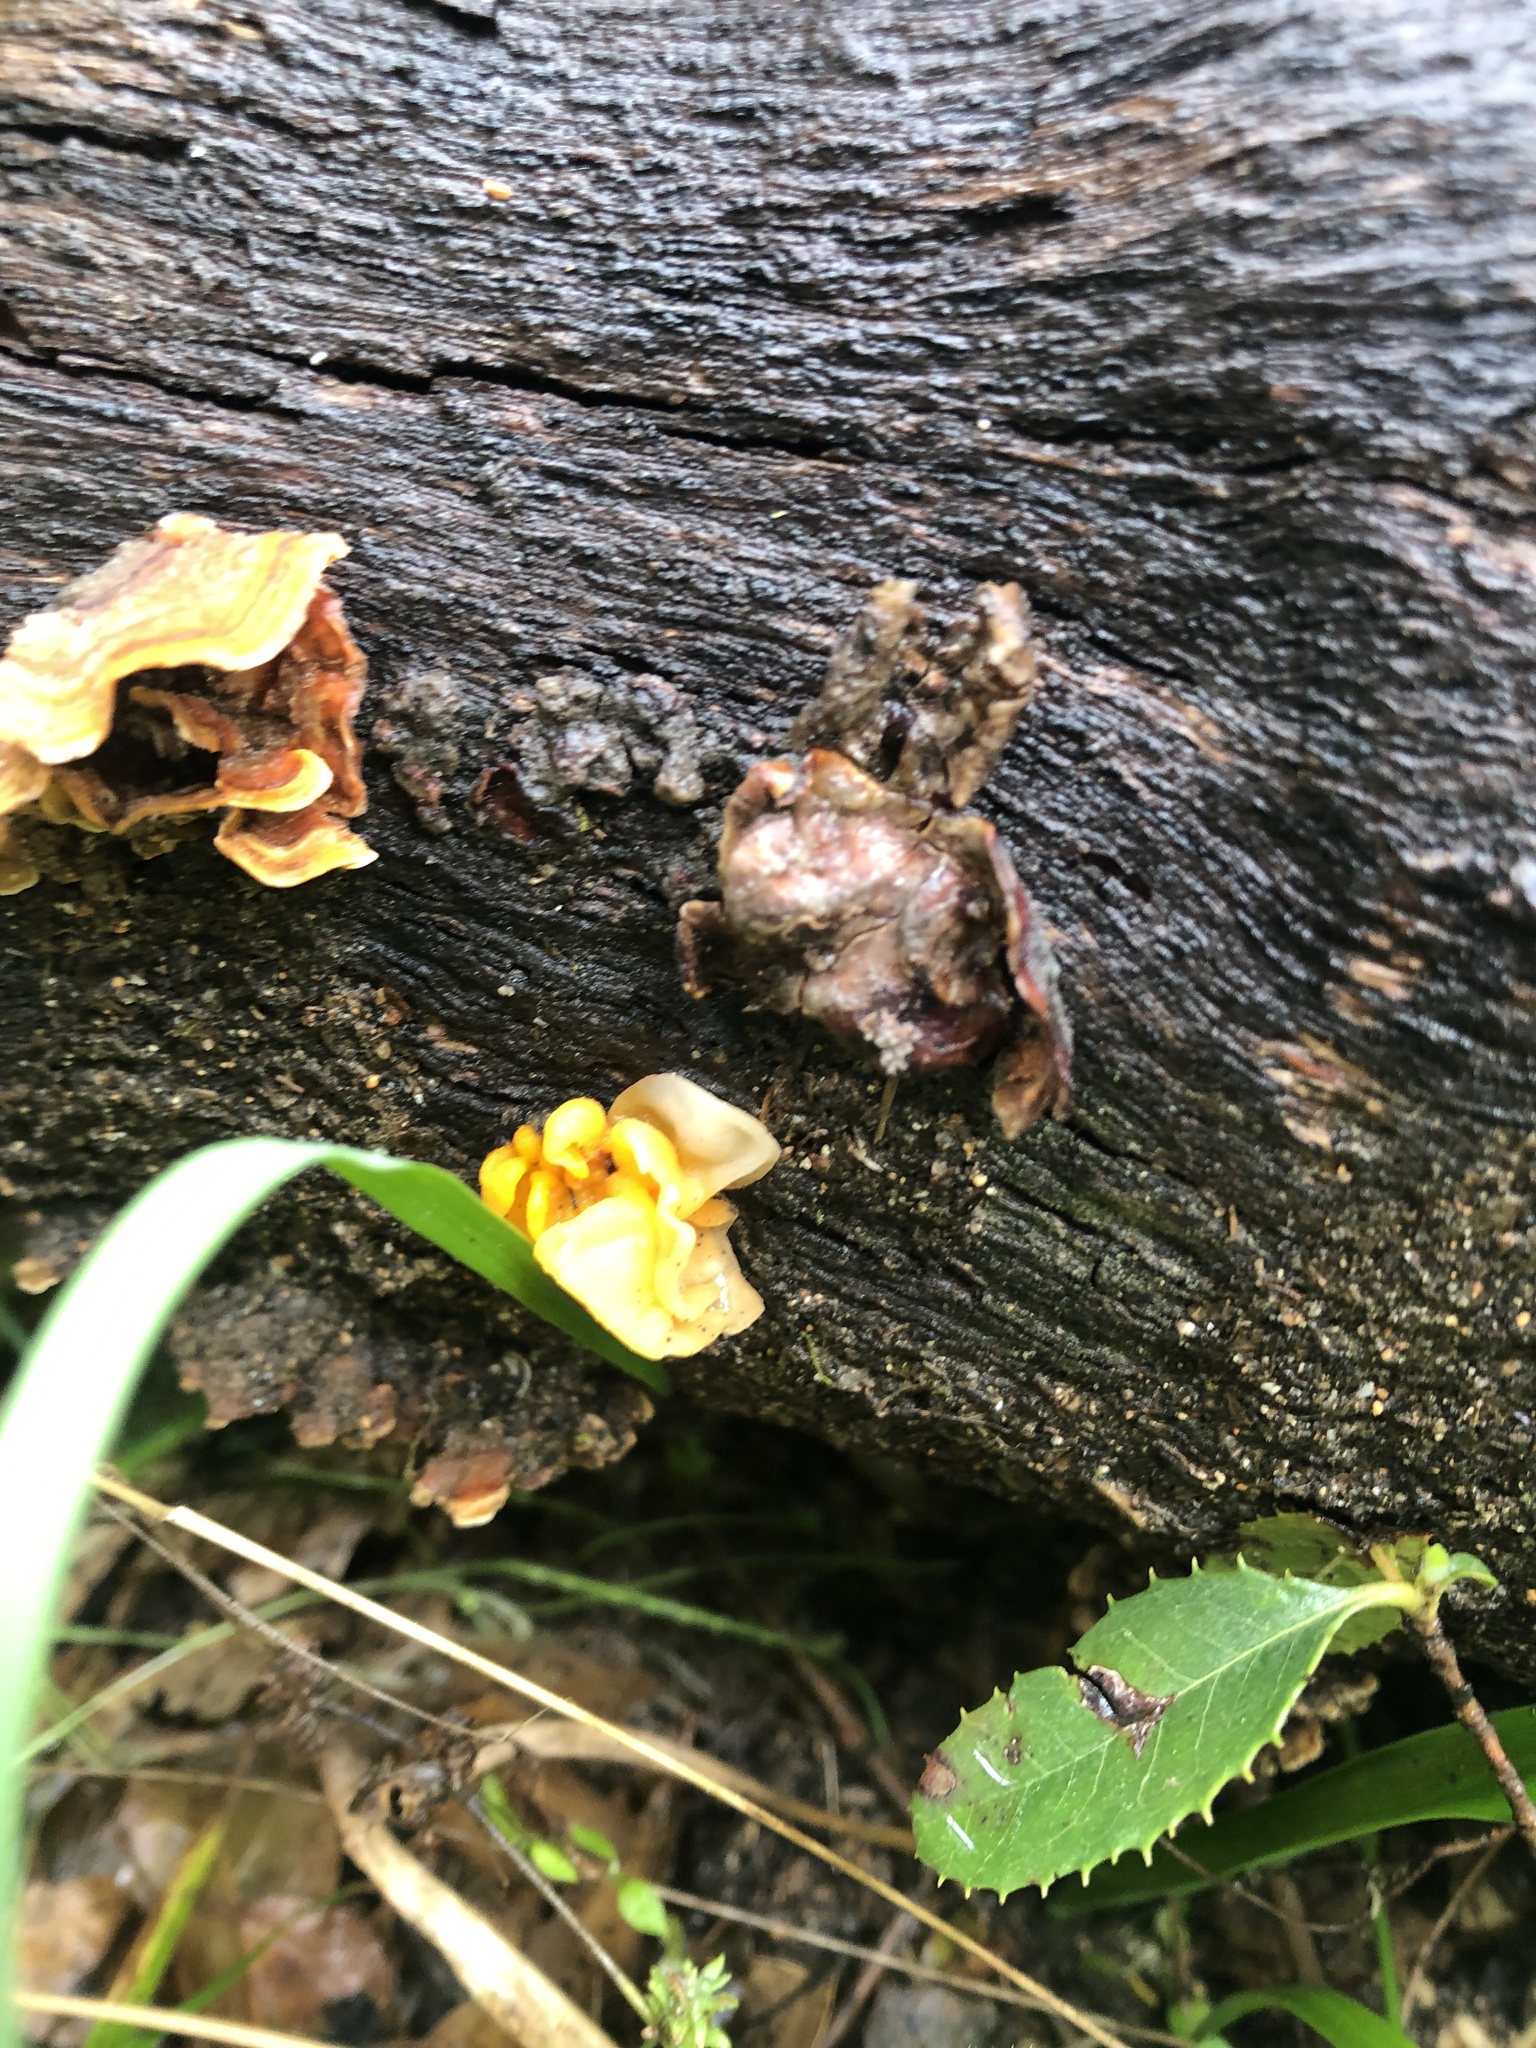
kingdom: Fungi
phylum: Basidiomycota
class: Tremellomycetes
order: Tremellales
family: Naemateliaceae
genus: Naematelia
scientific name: Naematelia aurantia
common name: Golden ear
